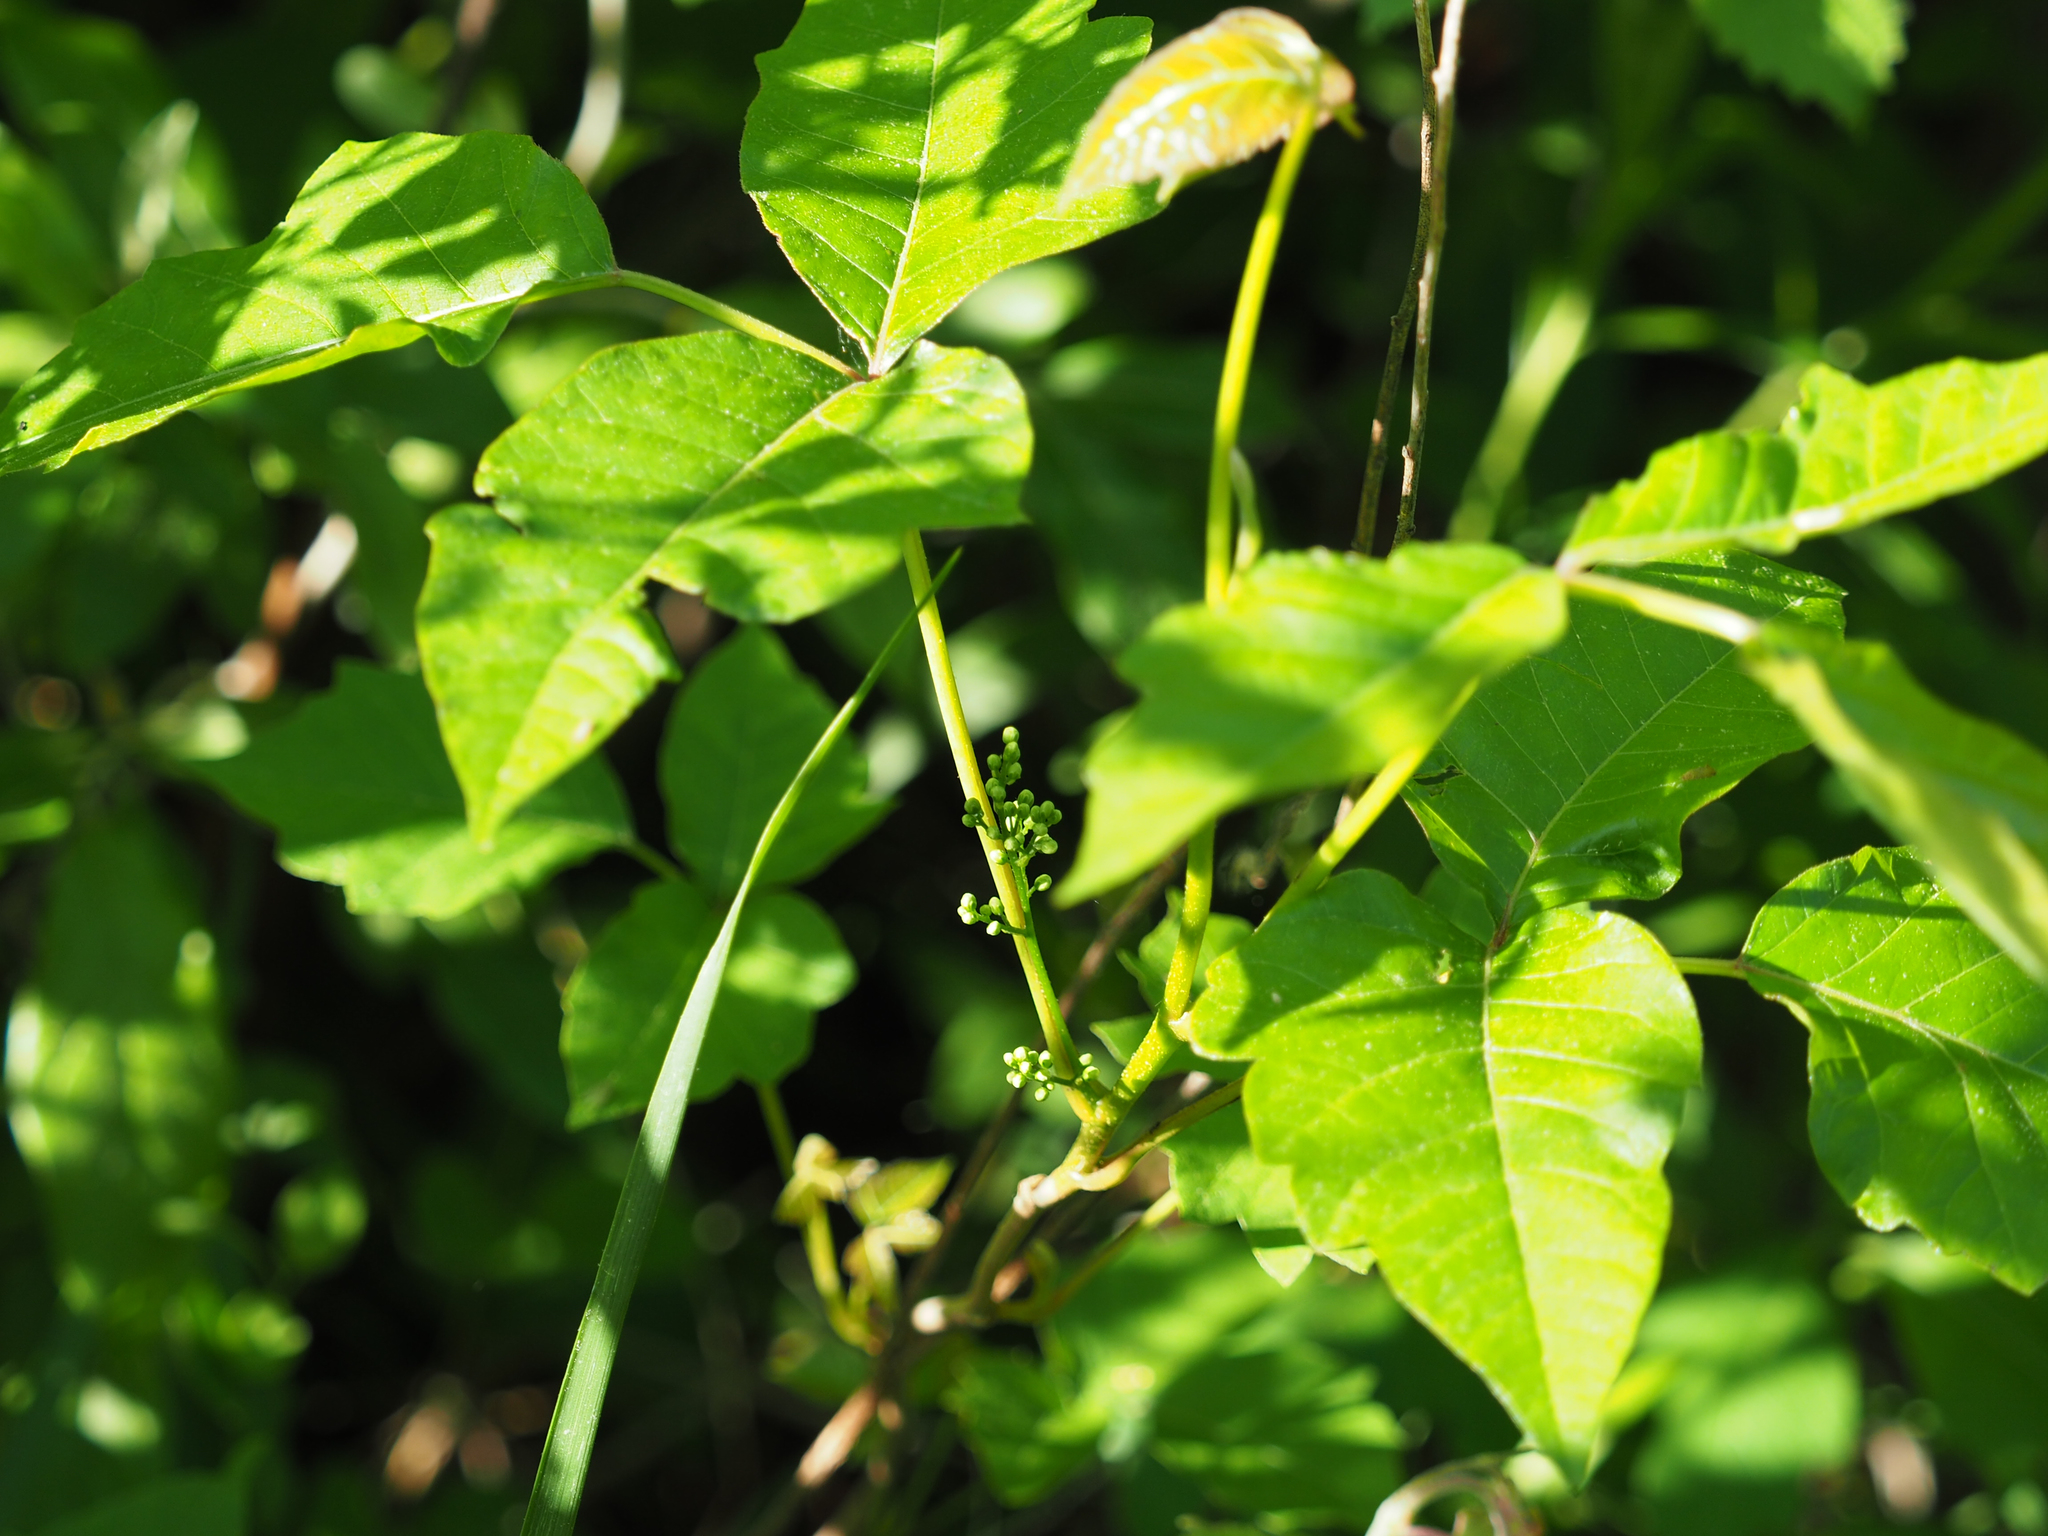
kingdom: Plantae
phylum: Tracheophyta
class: Magnoliopsida
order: Sapindales
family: Anacardiaceae
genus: Toxicodendron
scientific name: Toxicodendron radicans
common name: Poison ivy
